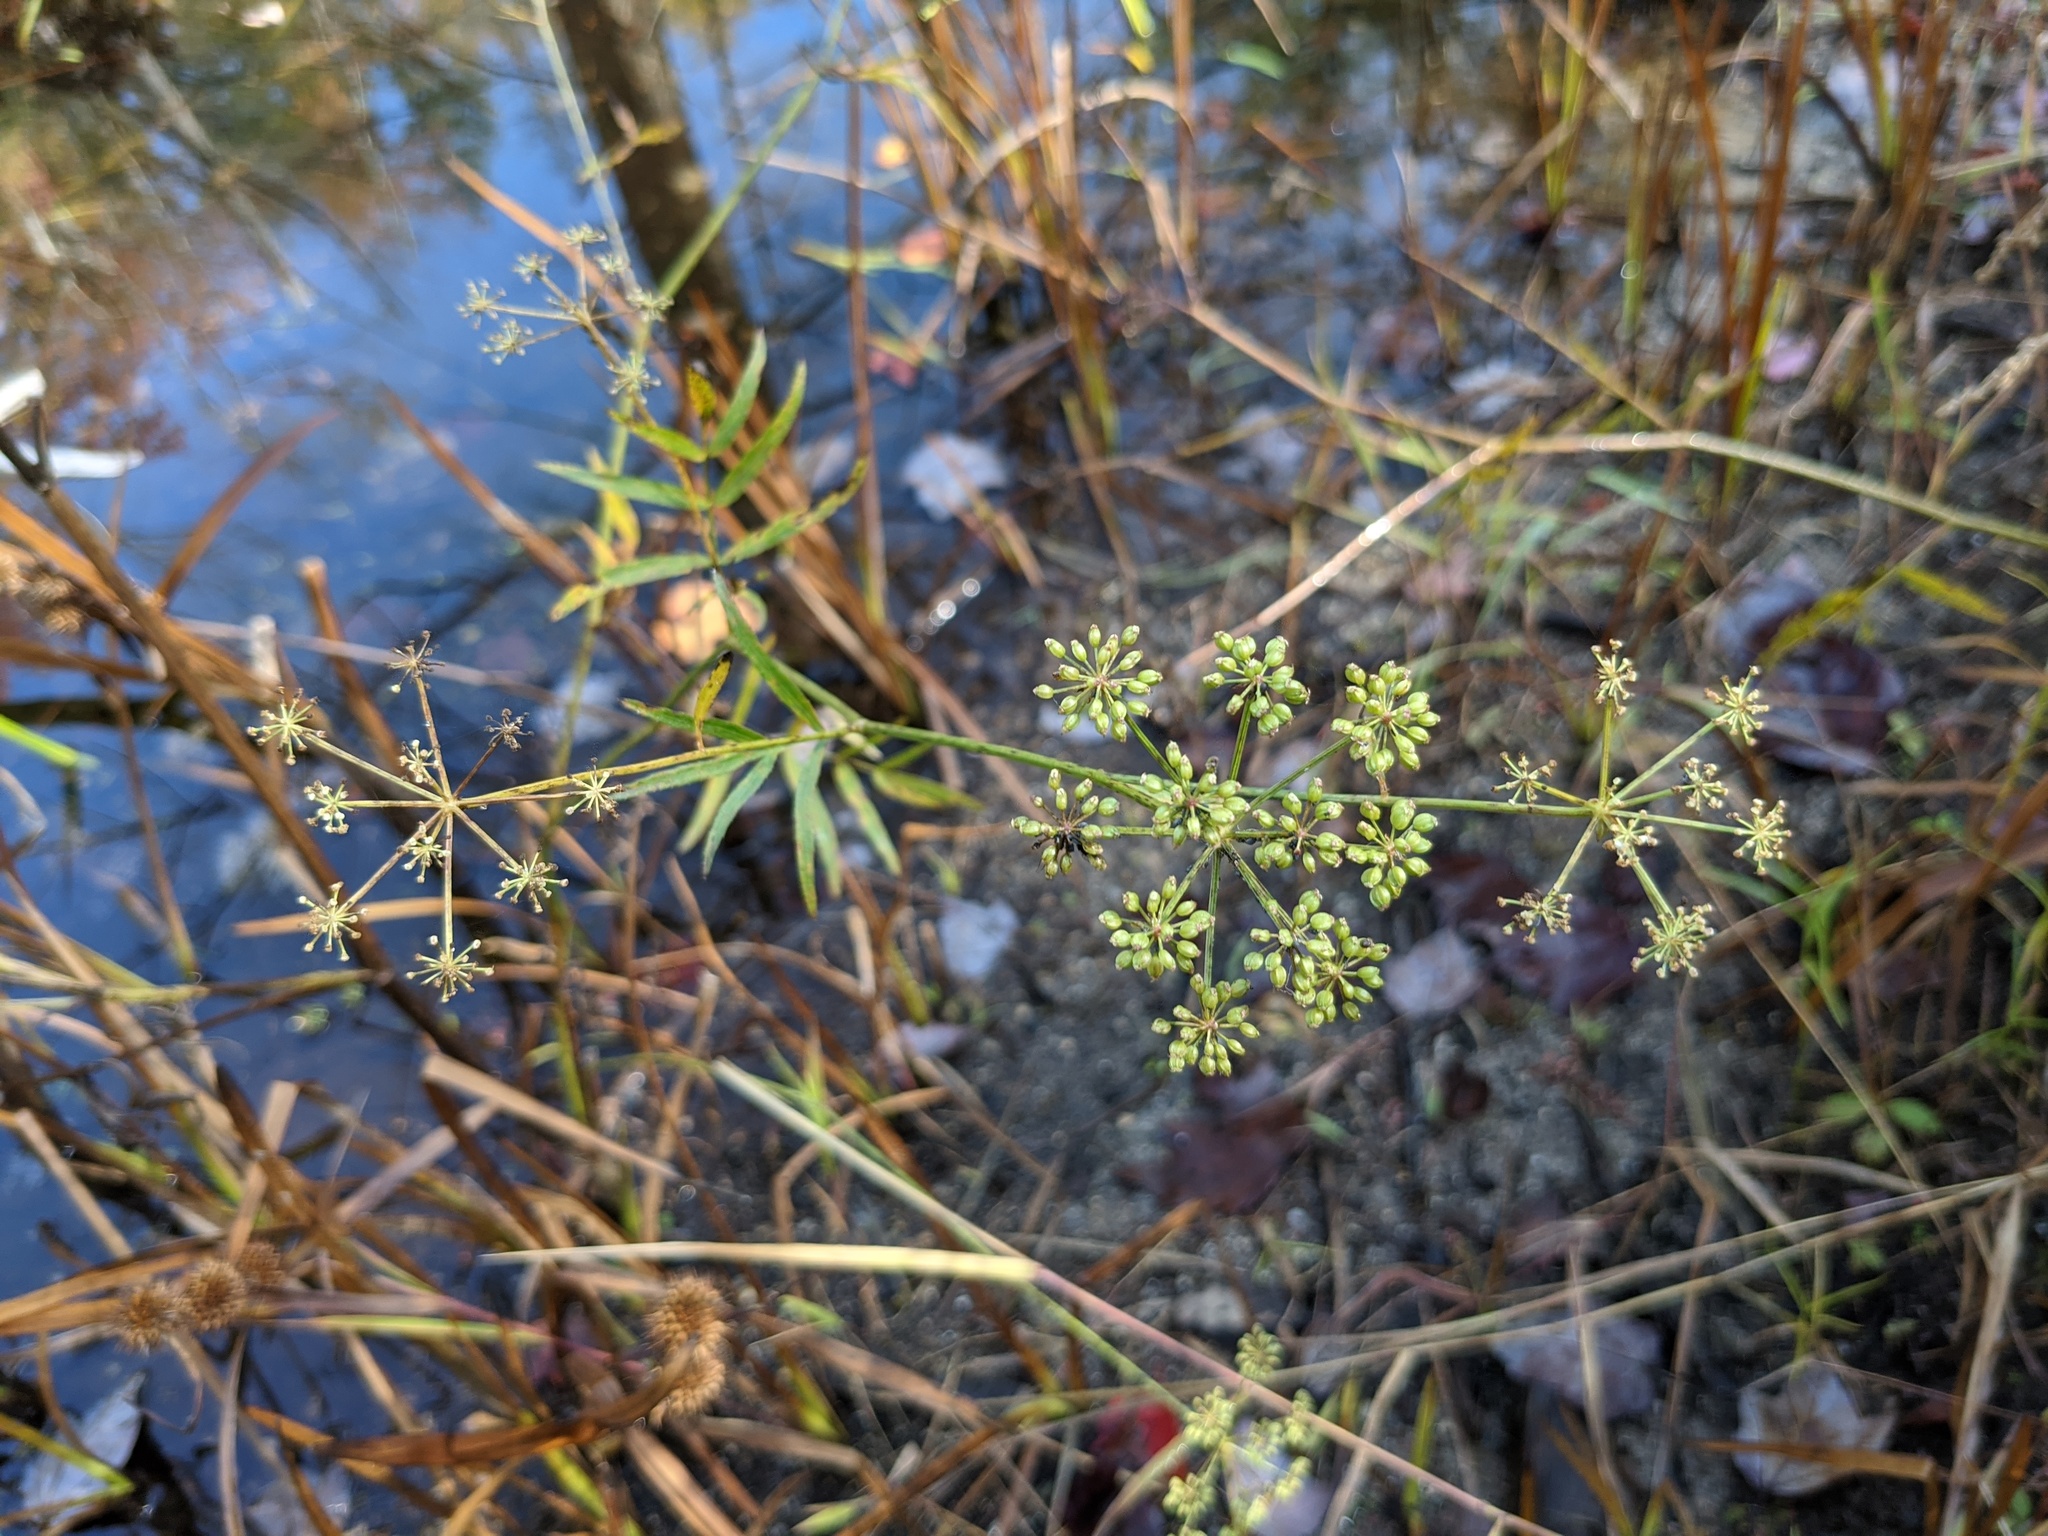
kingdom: Plantae
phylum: Tracheophyta
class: Magnoliopsida
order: Apiales
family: Apiaceae
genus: Sium
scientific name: Sium suave
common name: Hemlock water-parsnip
